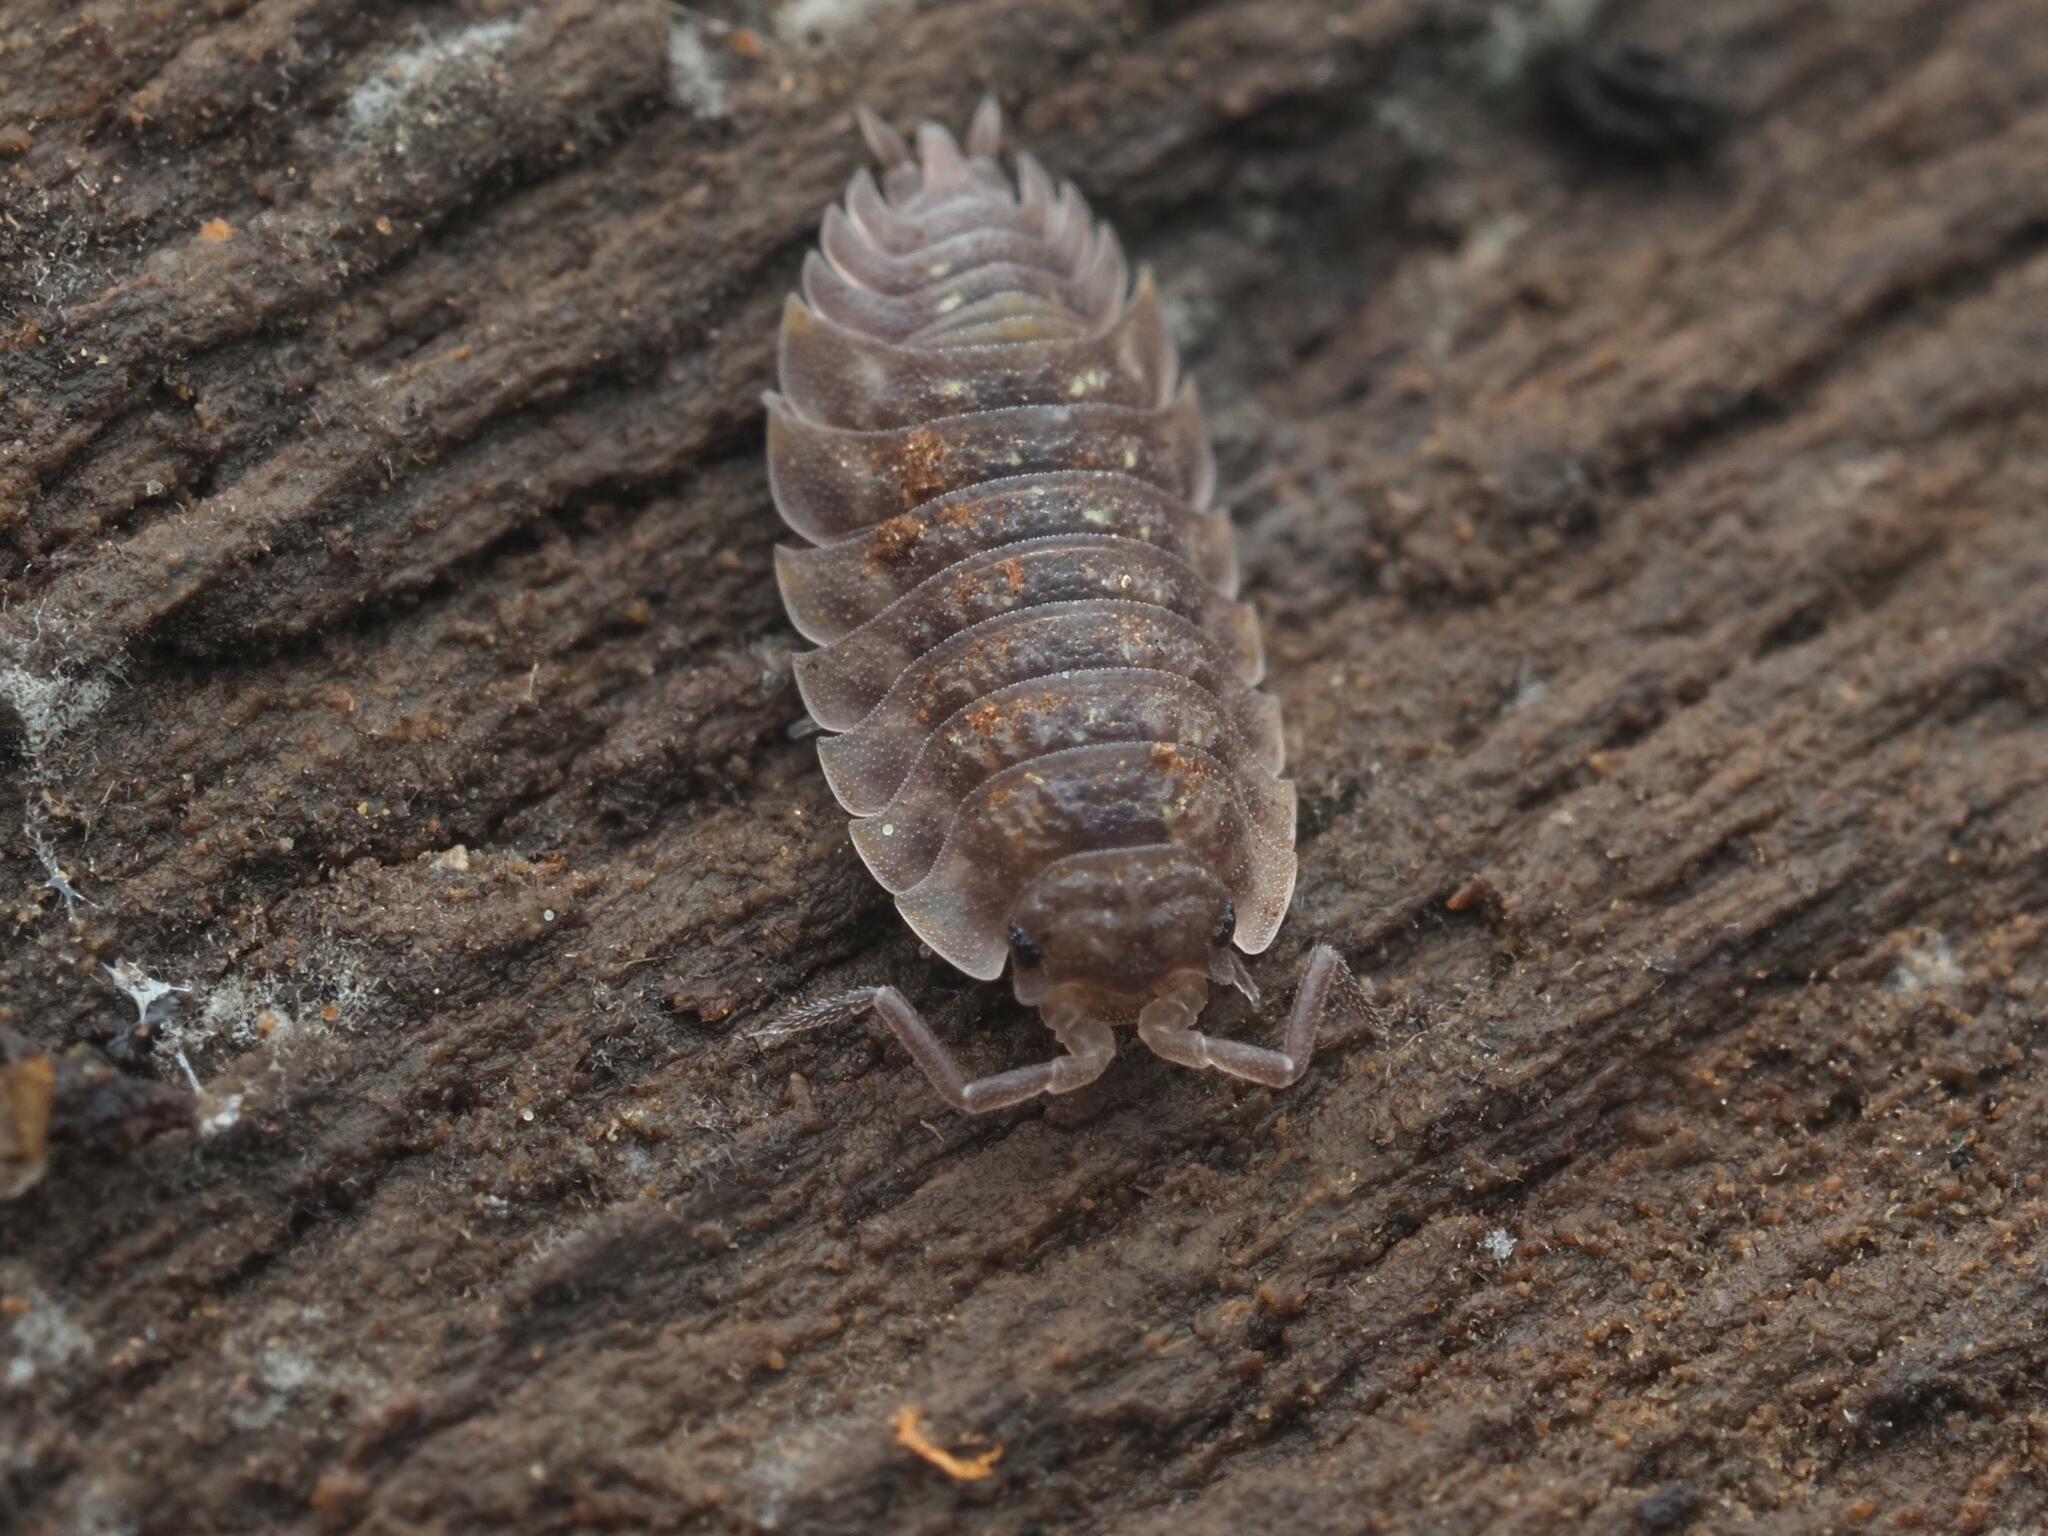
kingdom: Animalia
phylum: Arthropoda
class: Malacostraca
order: Isopoda
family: Oniscidae
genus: Oniscus
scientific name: Oniscus asellus
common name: Common shiny woodlouse
